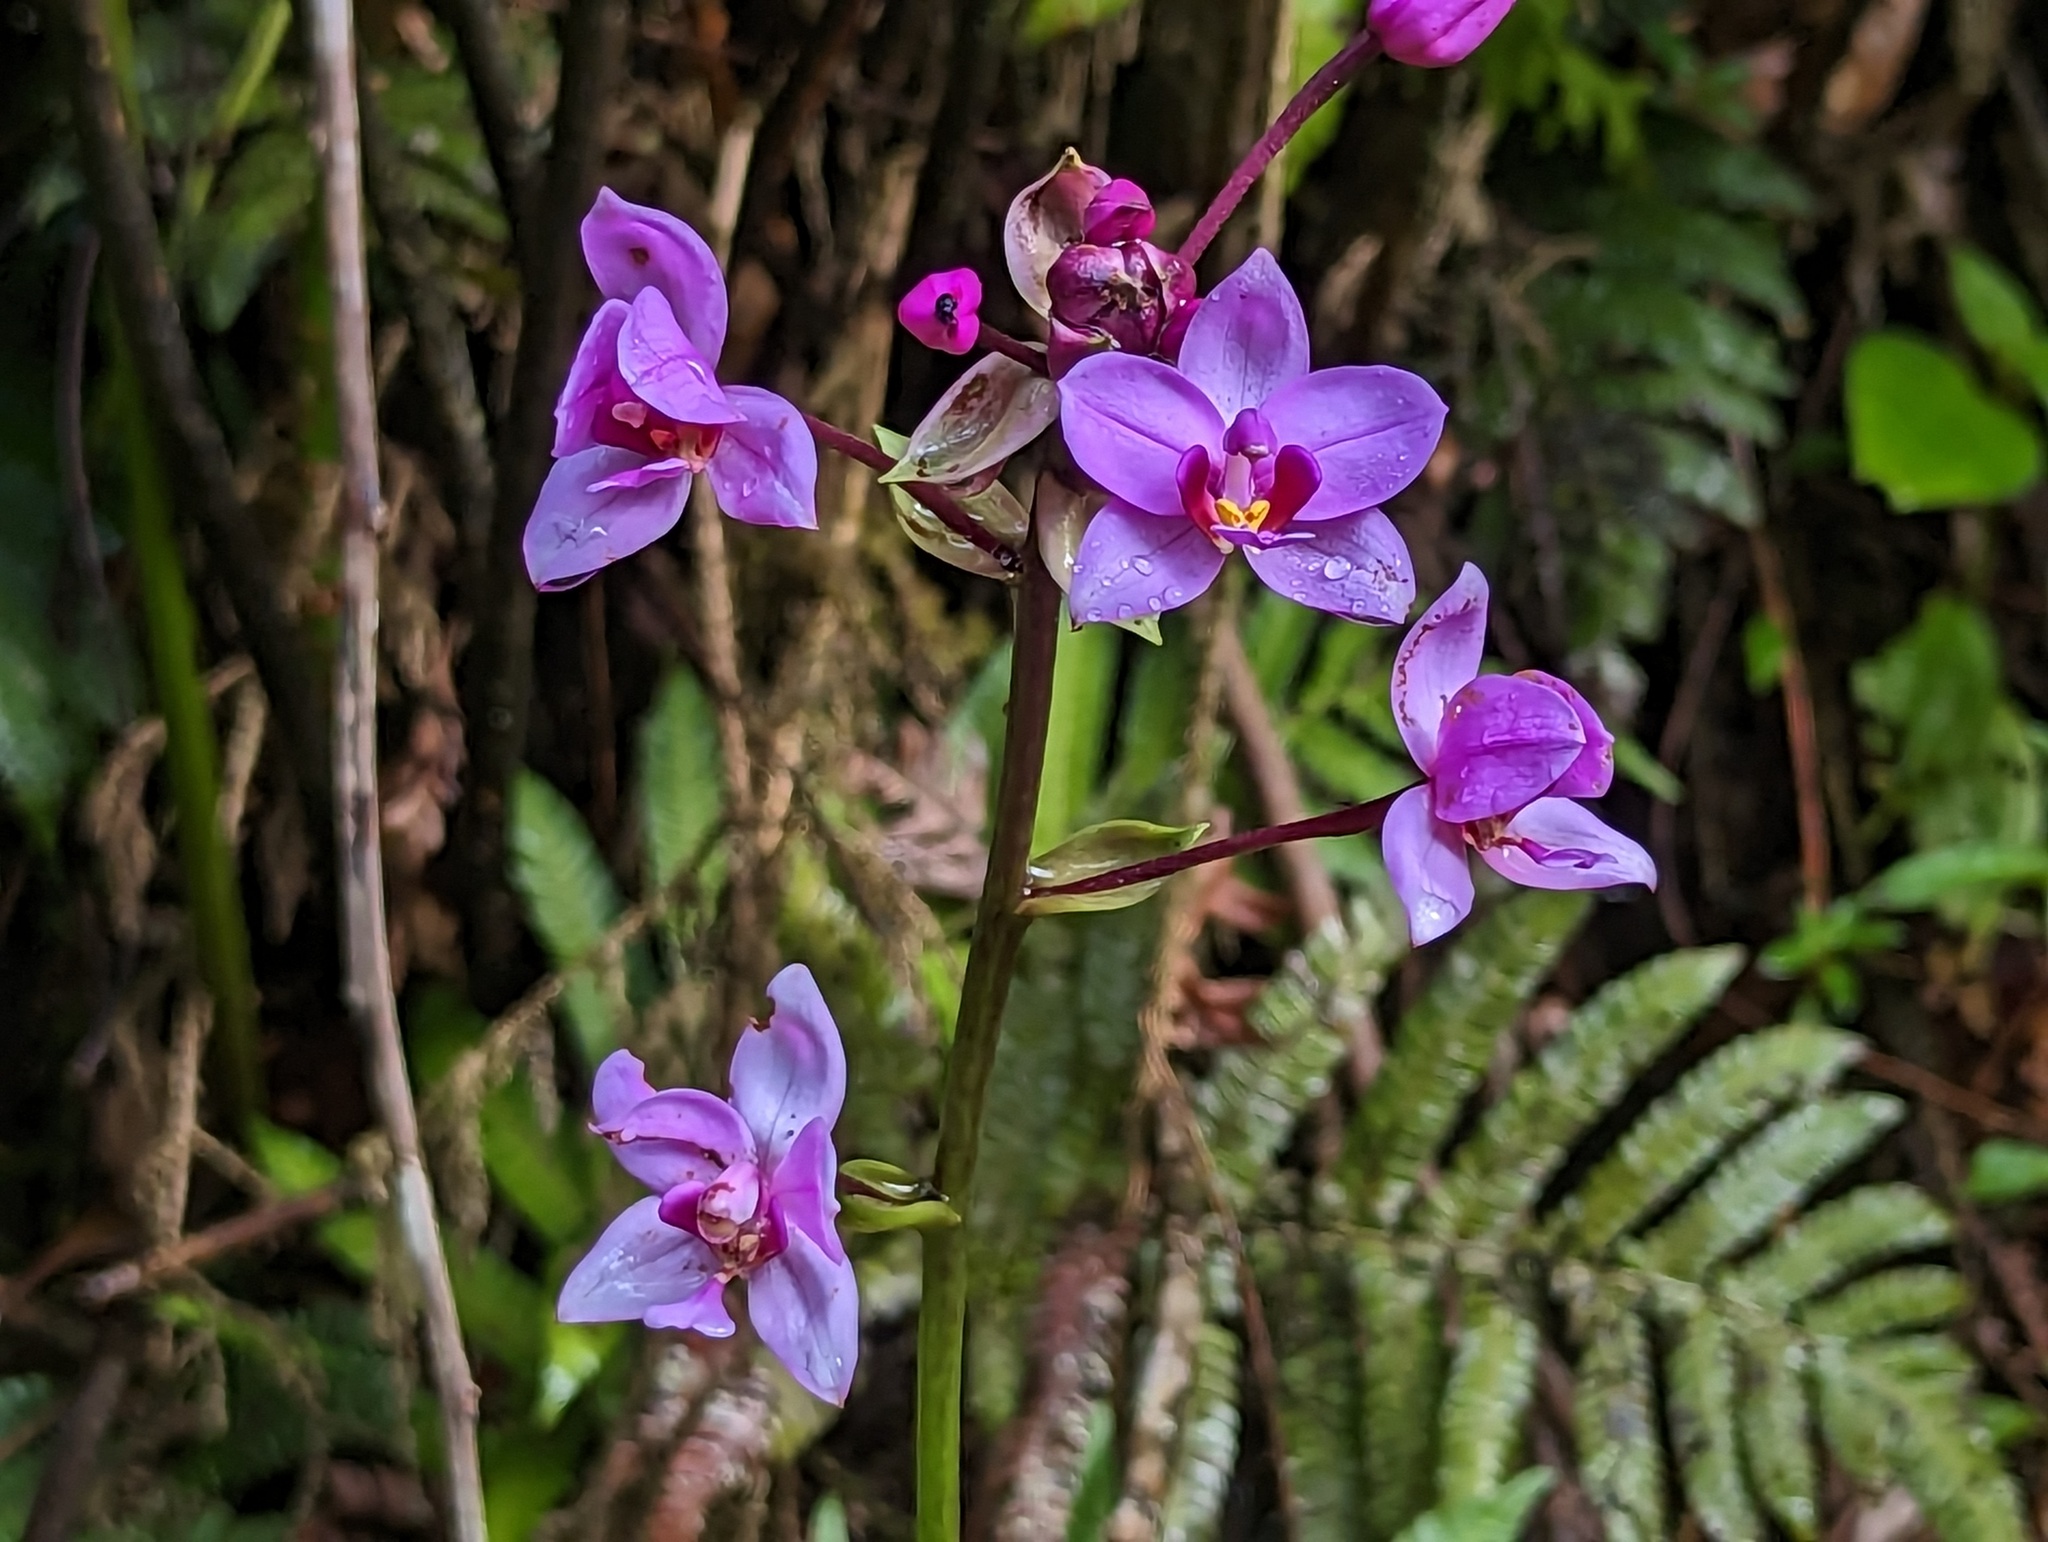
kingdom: Plantae
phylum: Tracheophyta
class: Liliopsida
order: Asparagales
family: Orchidaceae
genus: Spathoglottis
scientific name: Spathoglottis plicata
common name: Philippine ground orchid
